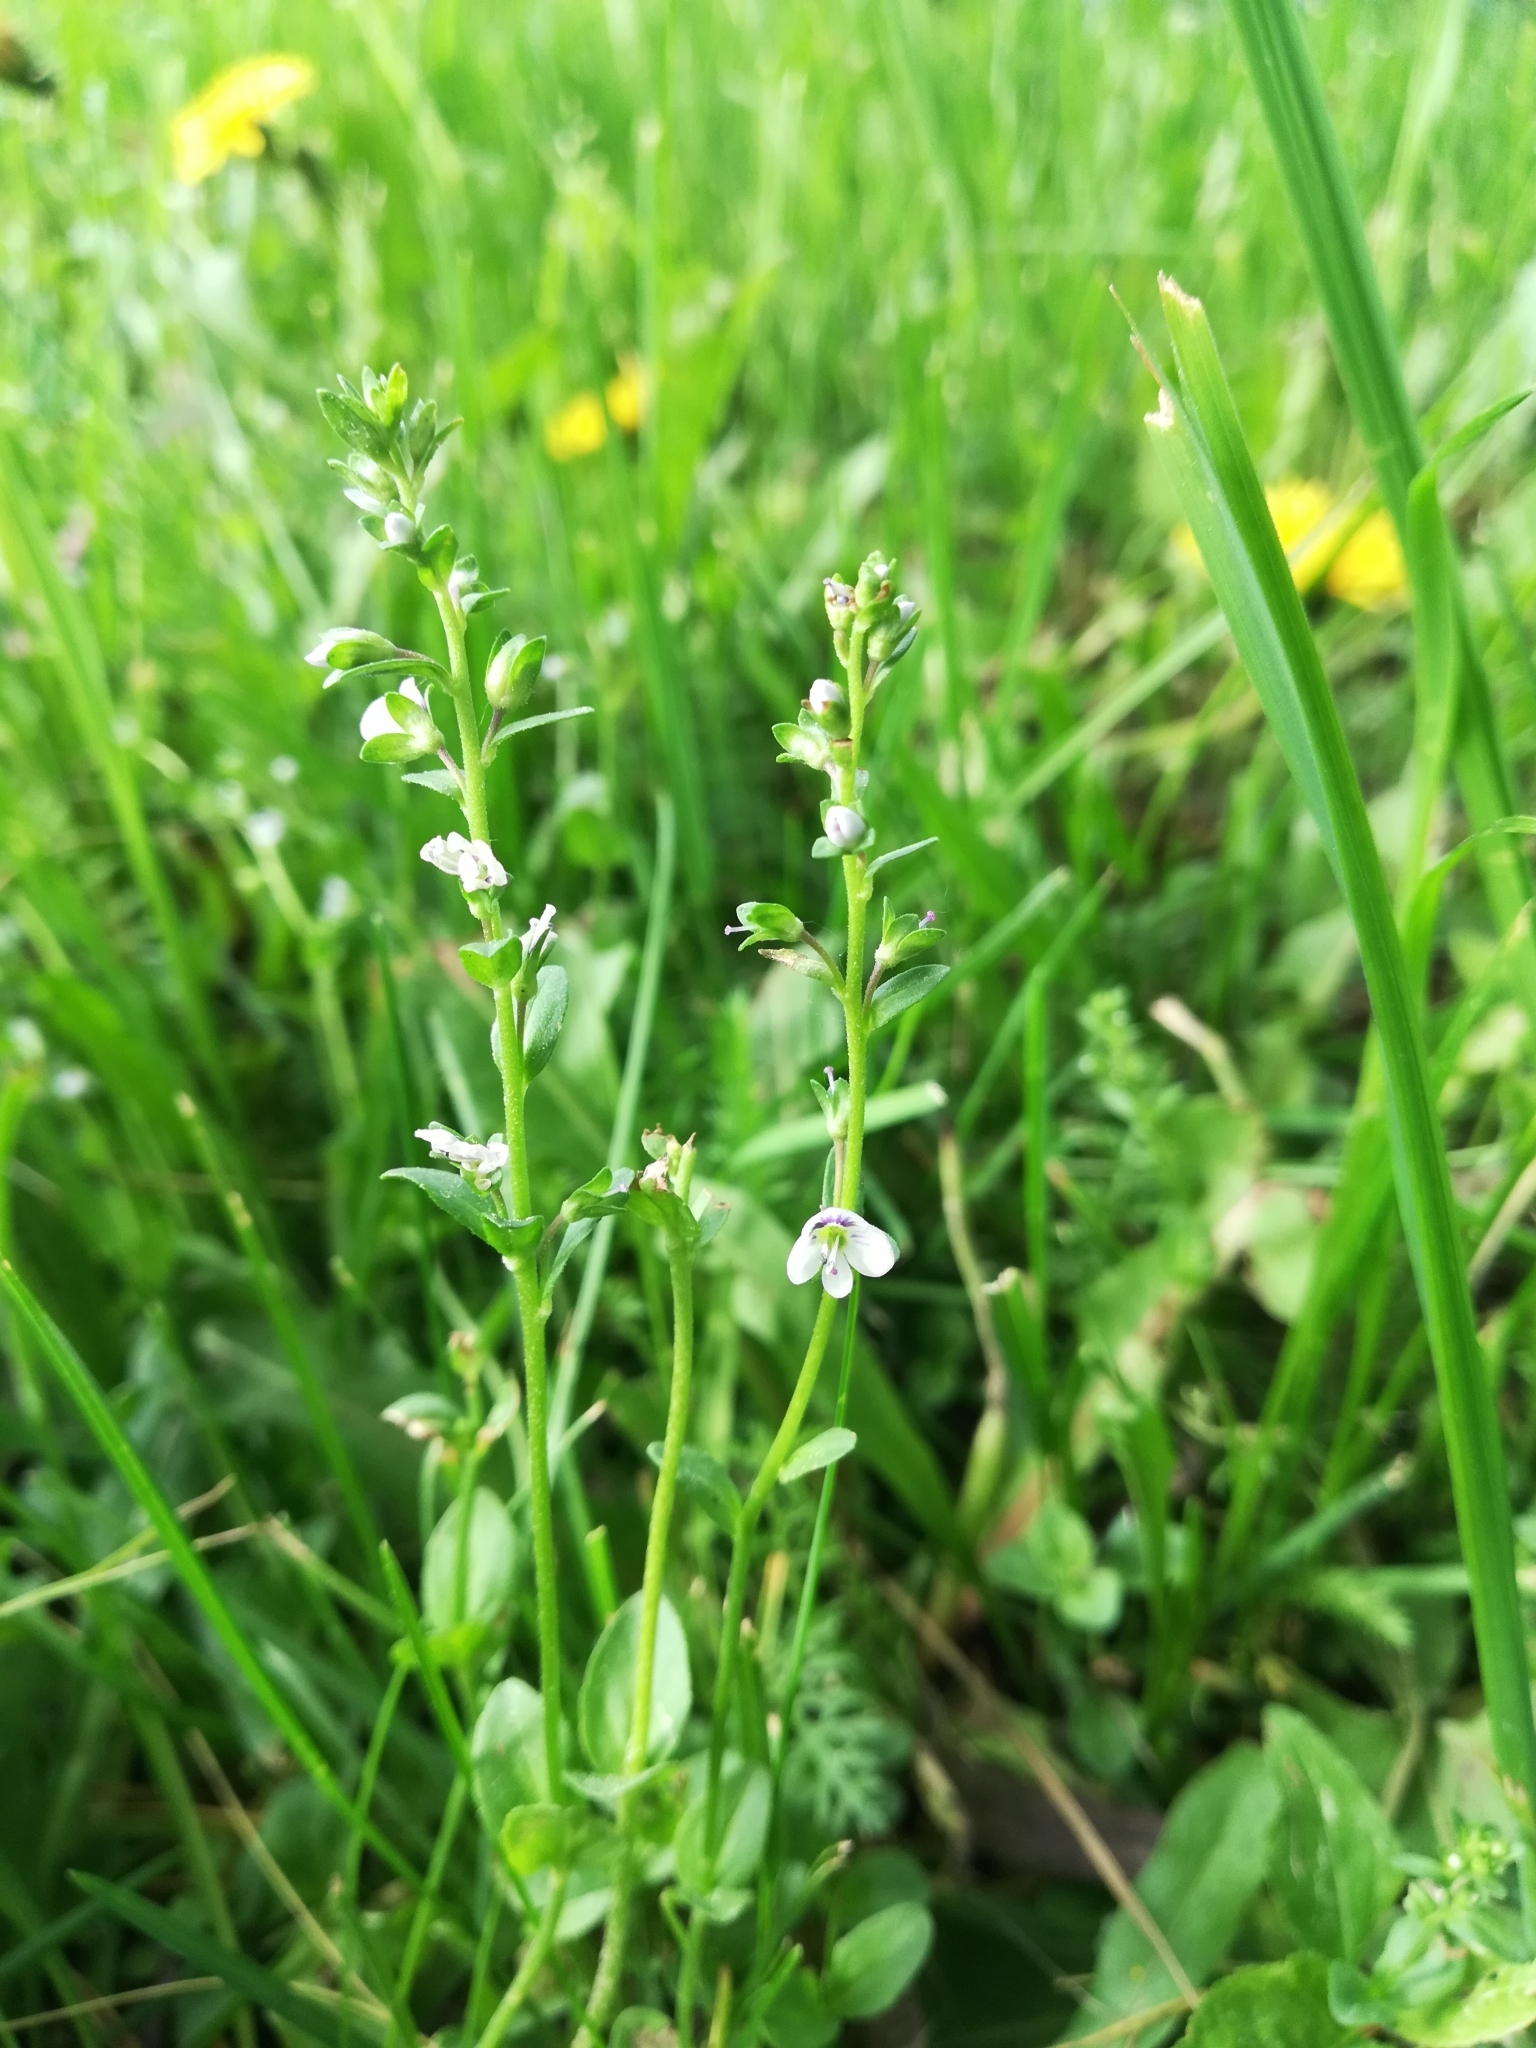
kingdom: Plantae
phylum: Tracheophyta
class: Magnoliopsida
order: Lamiales
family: Plantaginaceae
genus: Veronica
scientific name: Veronica serpyllifolia
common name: Thyme-leaved speedwell
